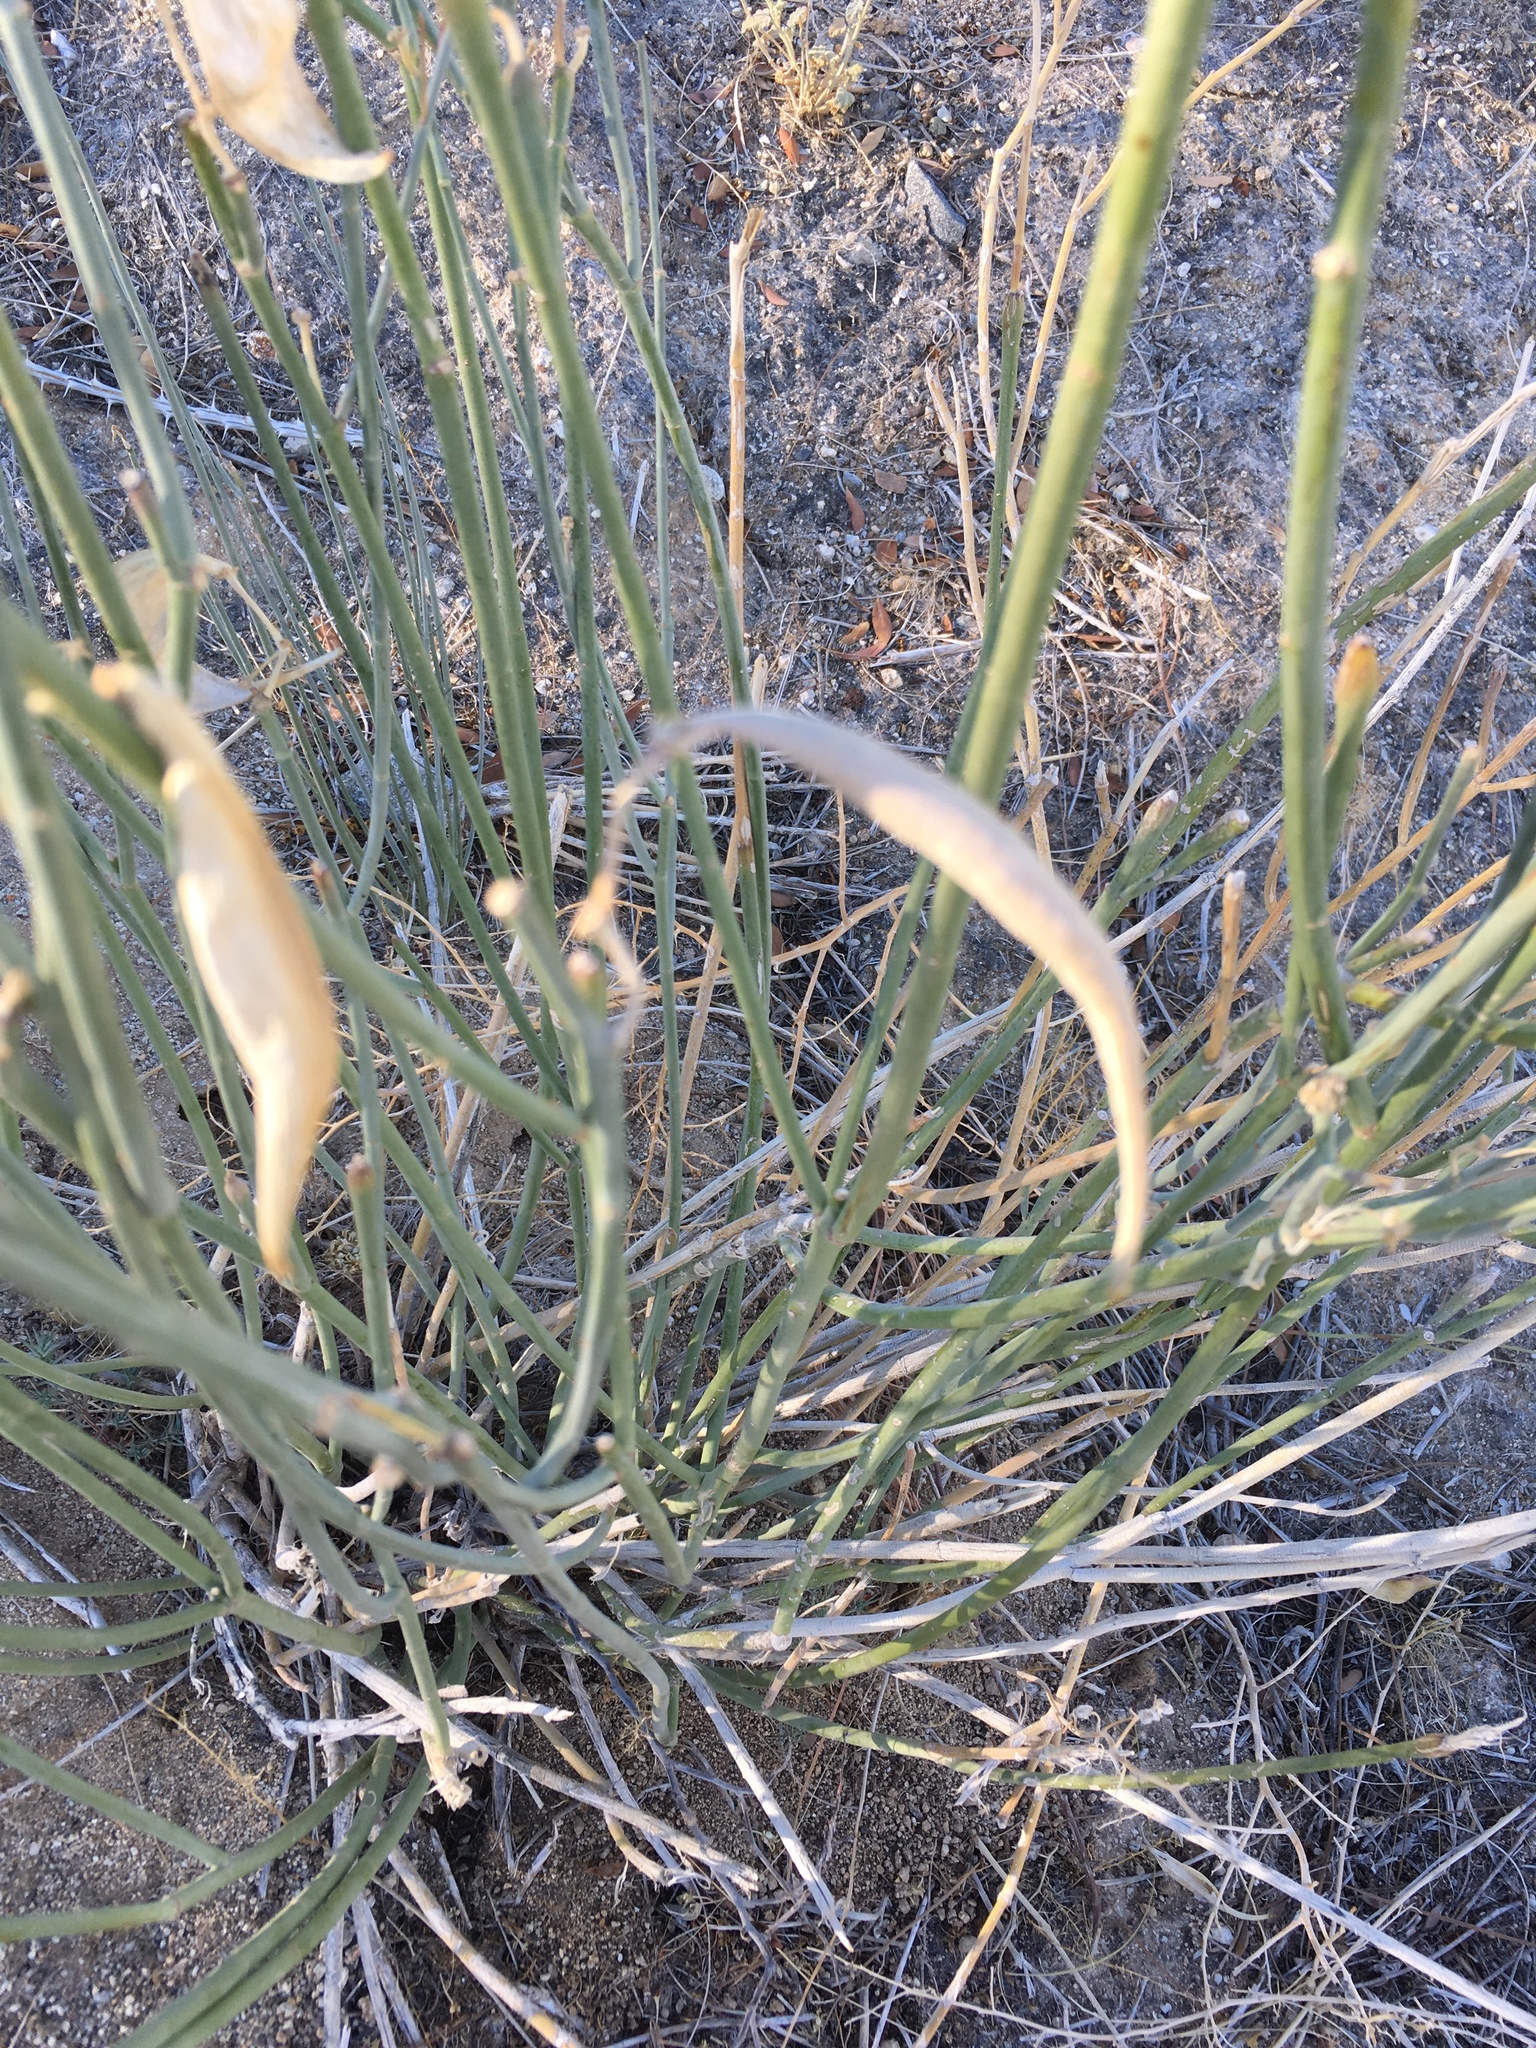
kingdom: Plantae
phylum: Tracheophyta
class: Magnoliopsida
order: Gentianales
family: Apocynaceae
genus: Asclepias
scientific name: Asclepias subulata
